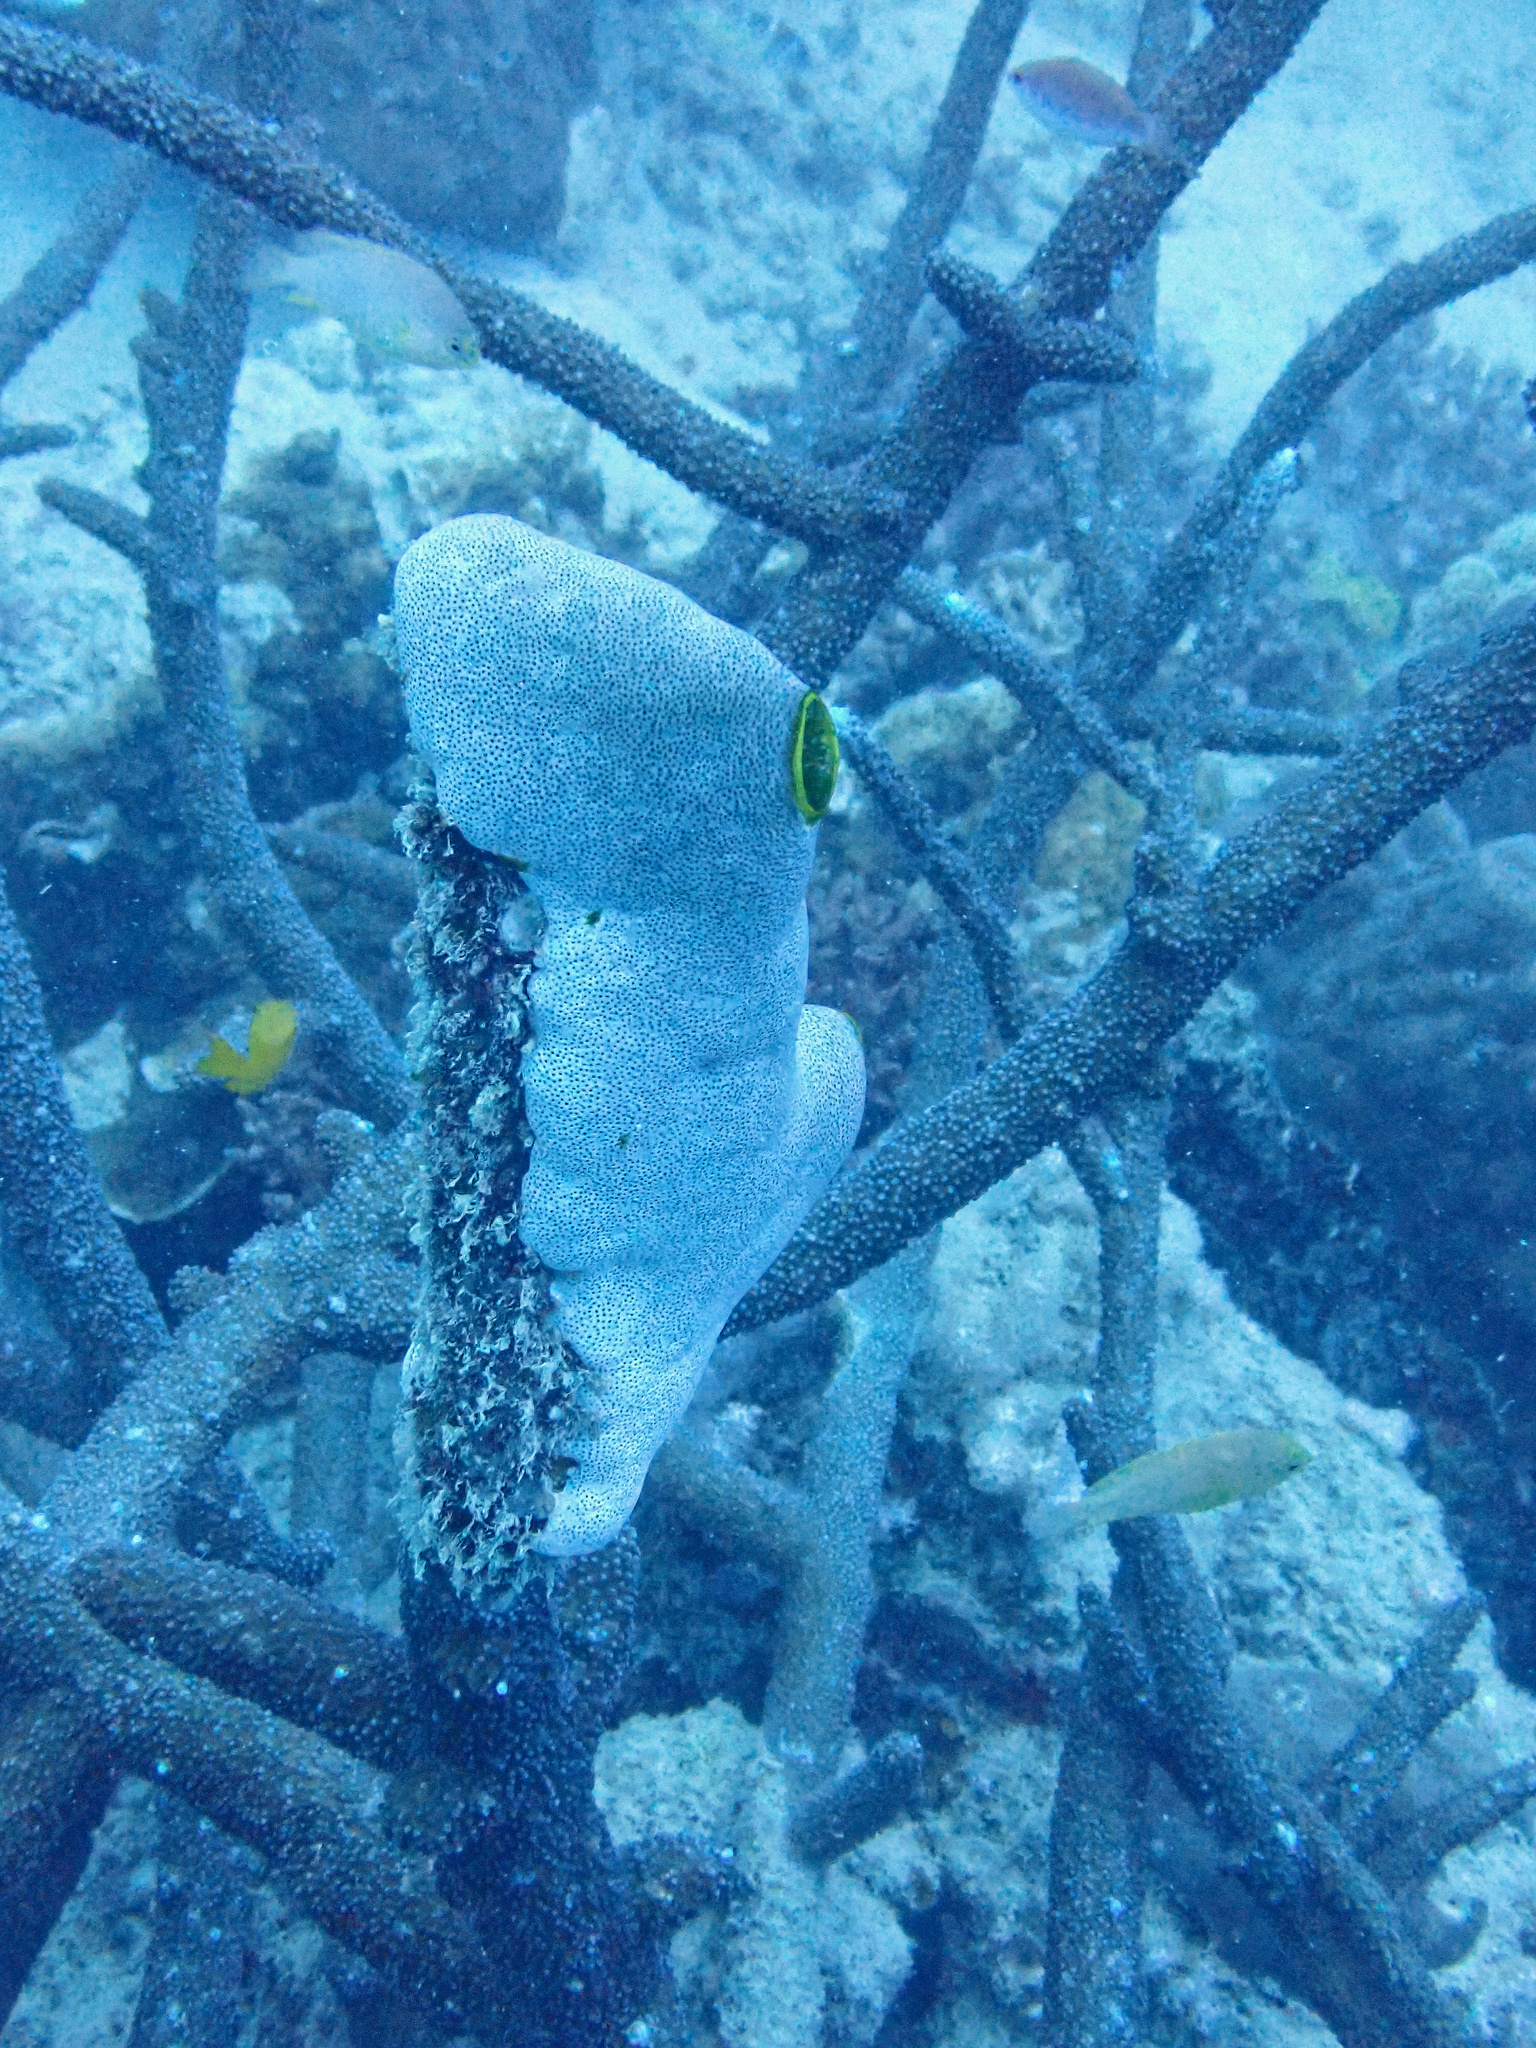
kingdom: Animalia
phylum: Chordata
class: Ascidiacea
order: Aplousobranchia
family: Didemnidae
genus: Didemnum
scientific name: Didemnum molle
